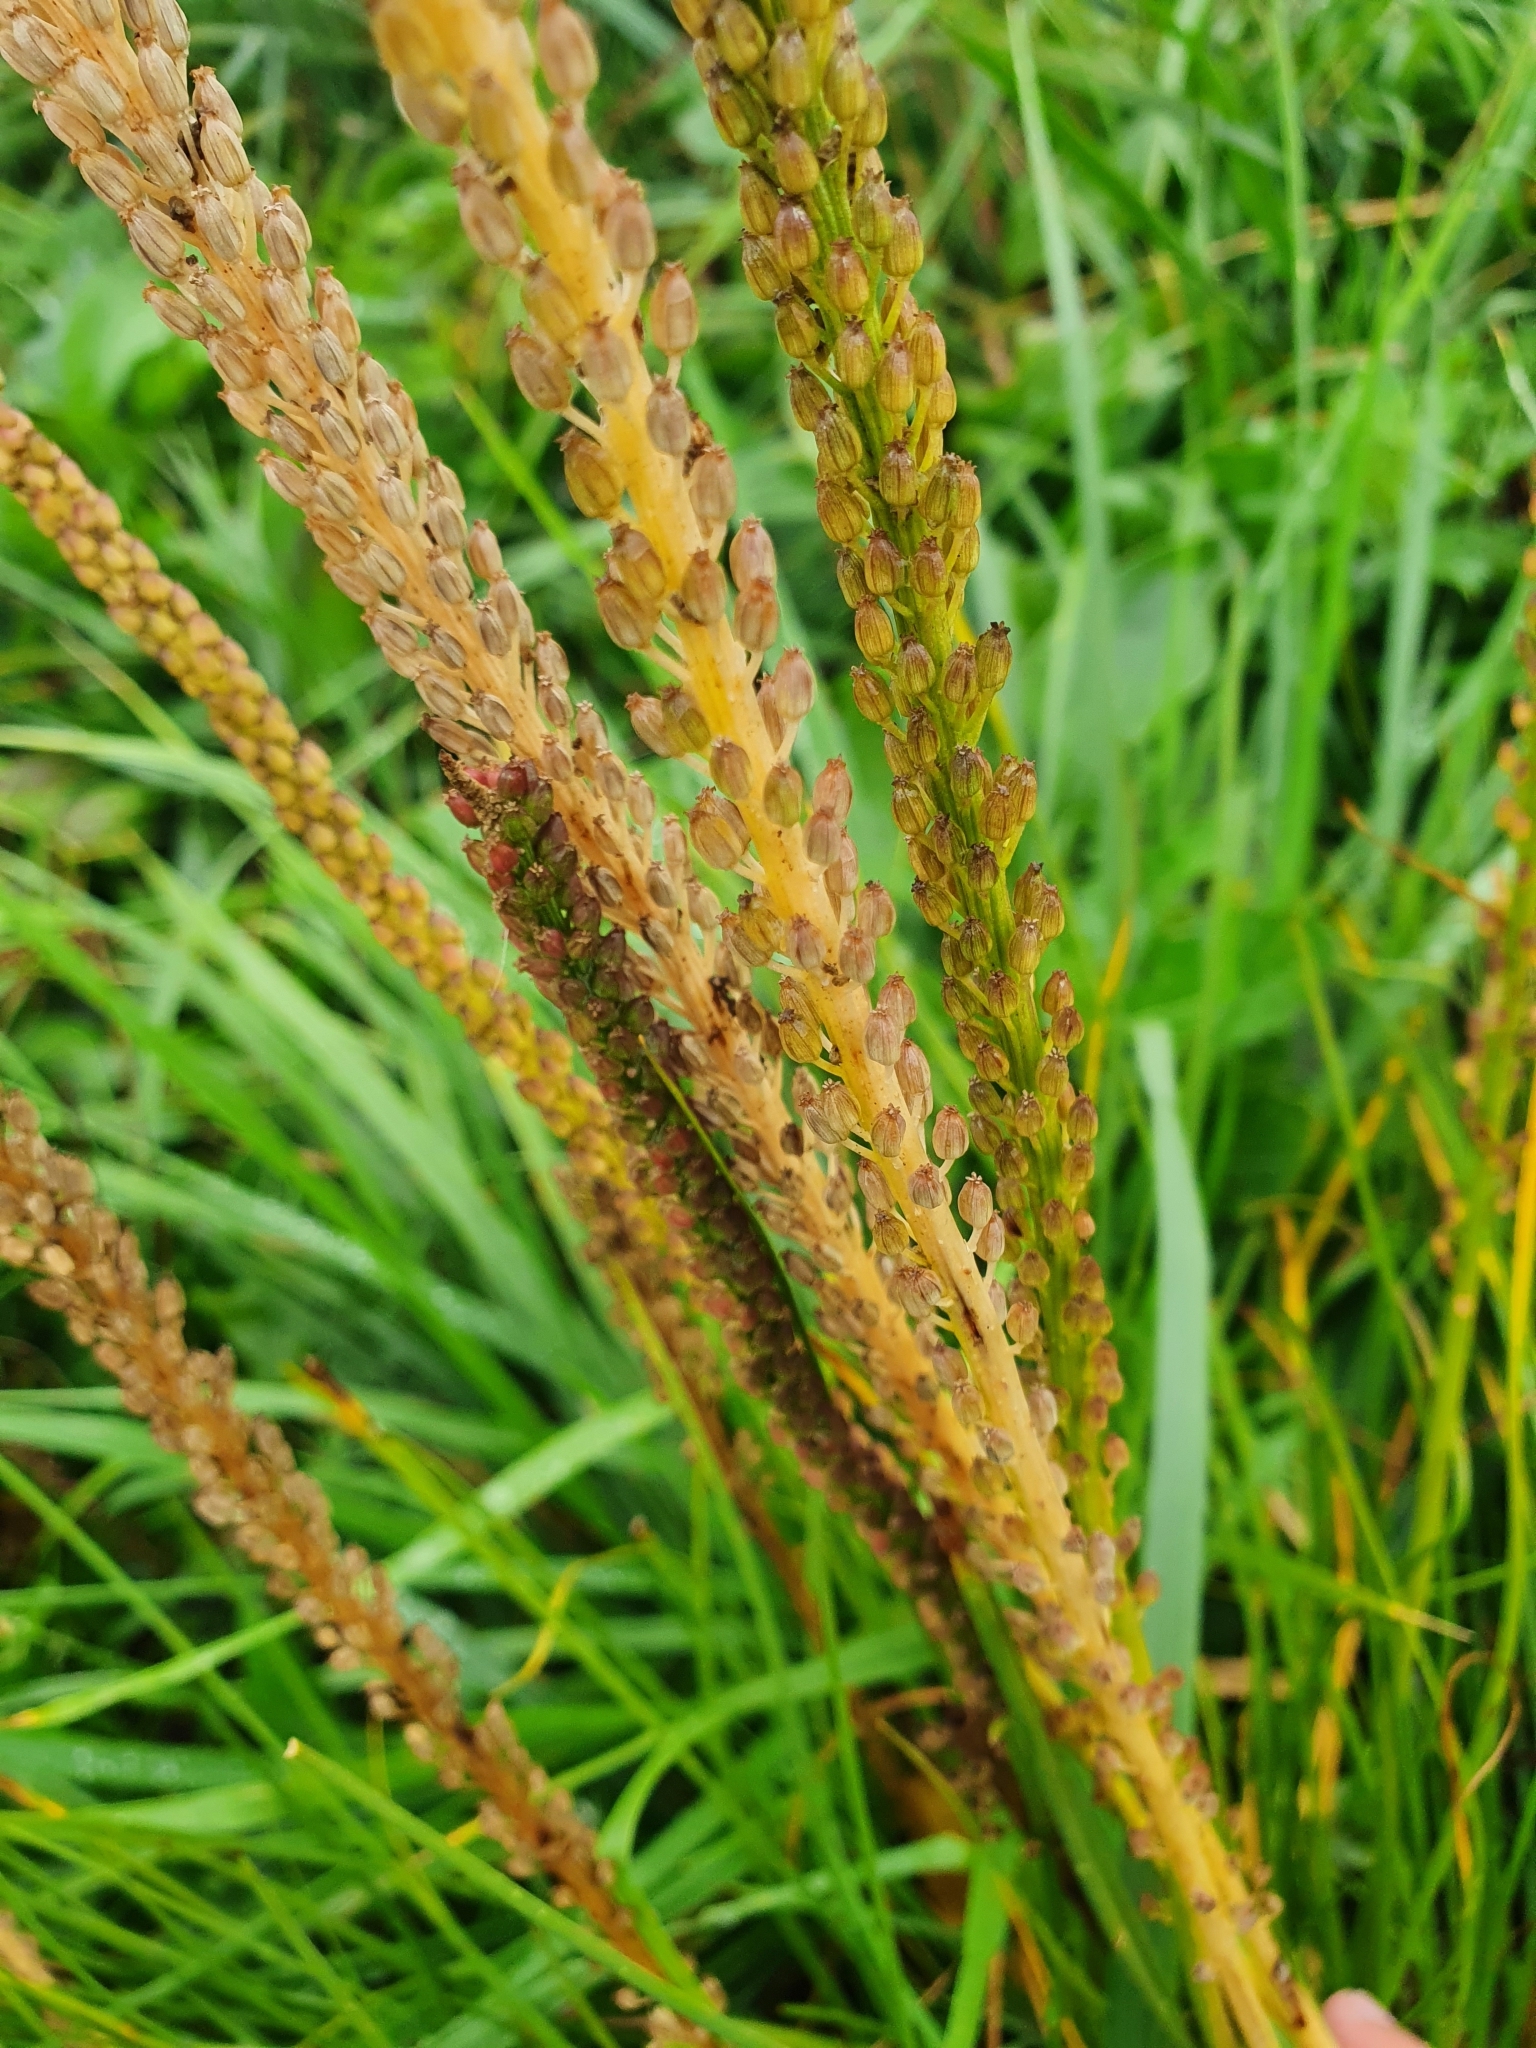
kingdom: Plantae
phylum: Tracheophyta
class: Liliopsida
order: Alismatales
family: Juncaginaceae
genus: Triglochin
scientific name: Triglochin maritima
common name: Sea arrowgrass
